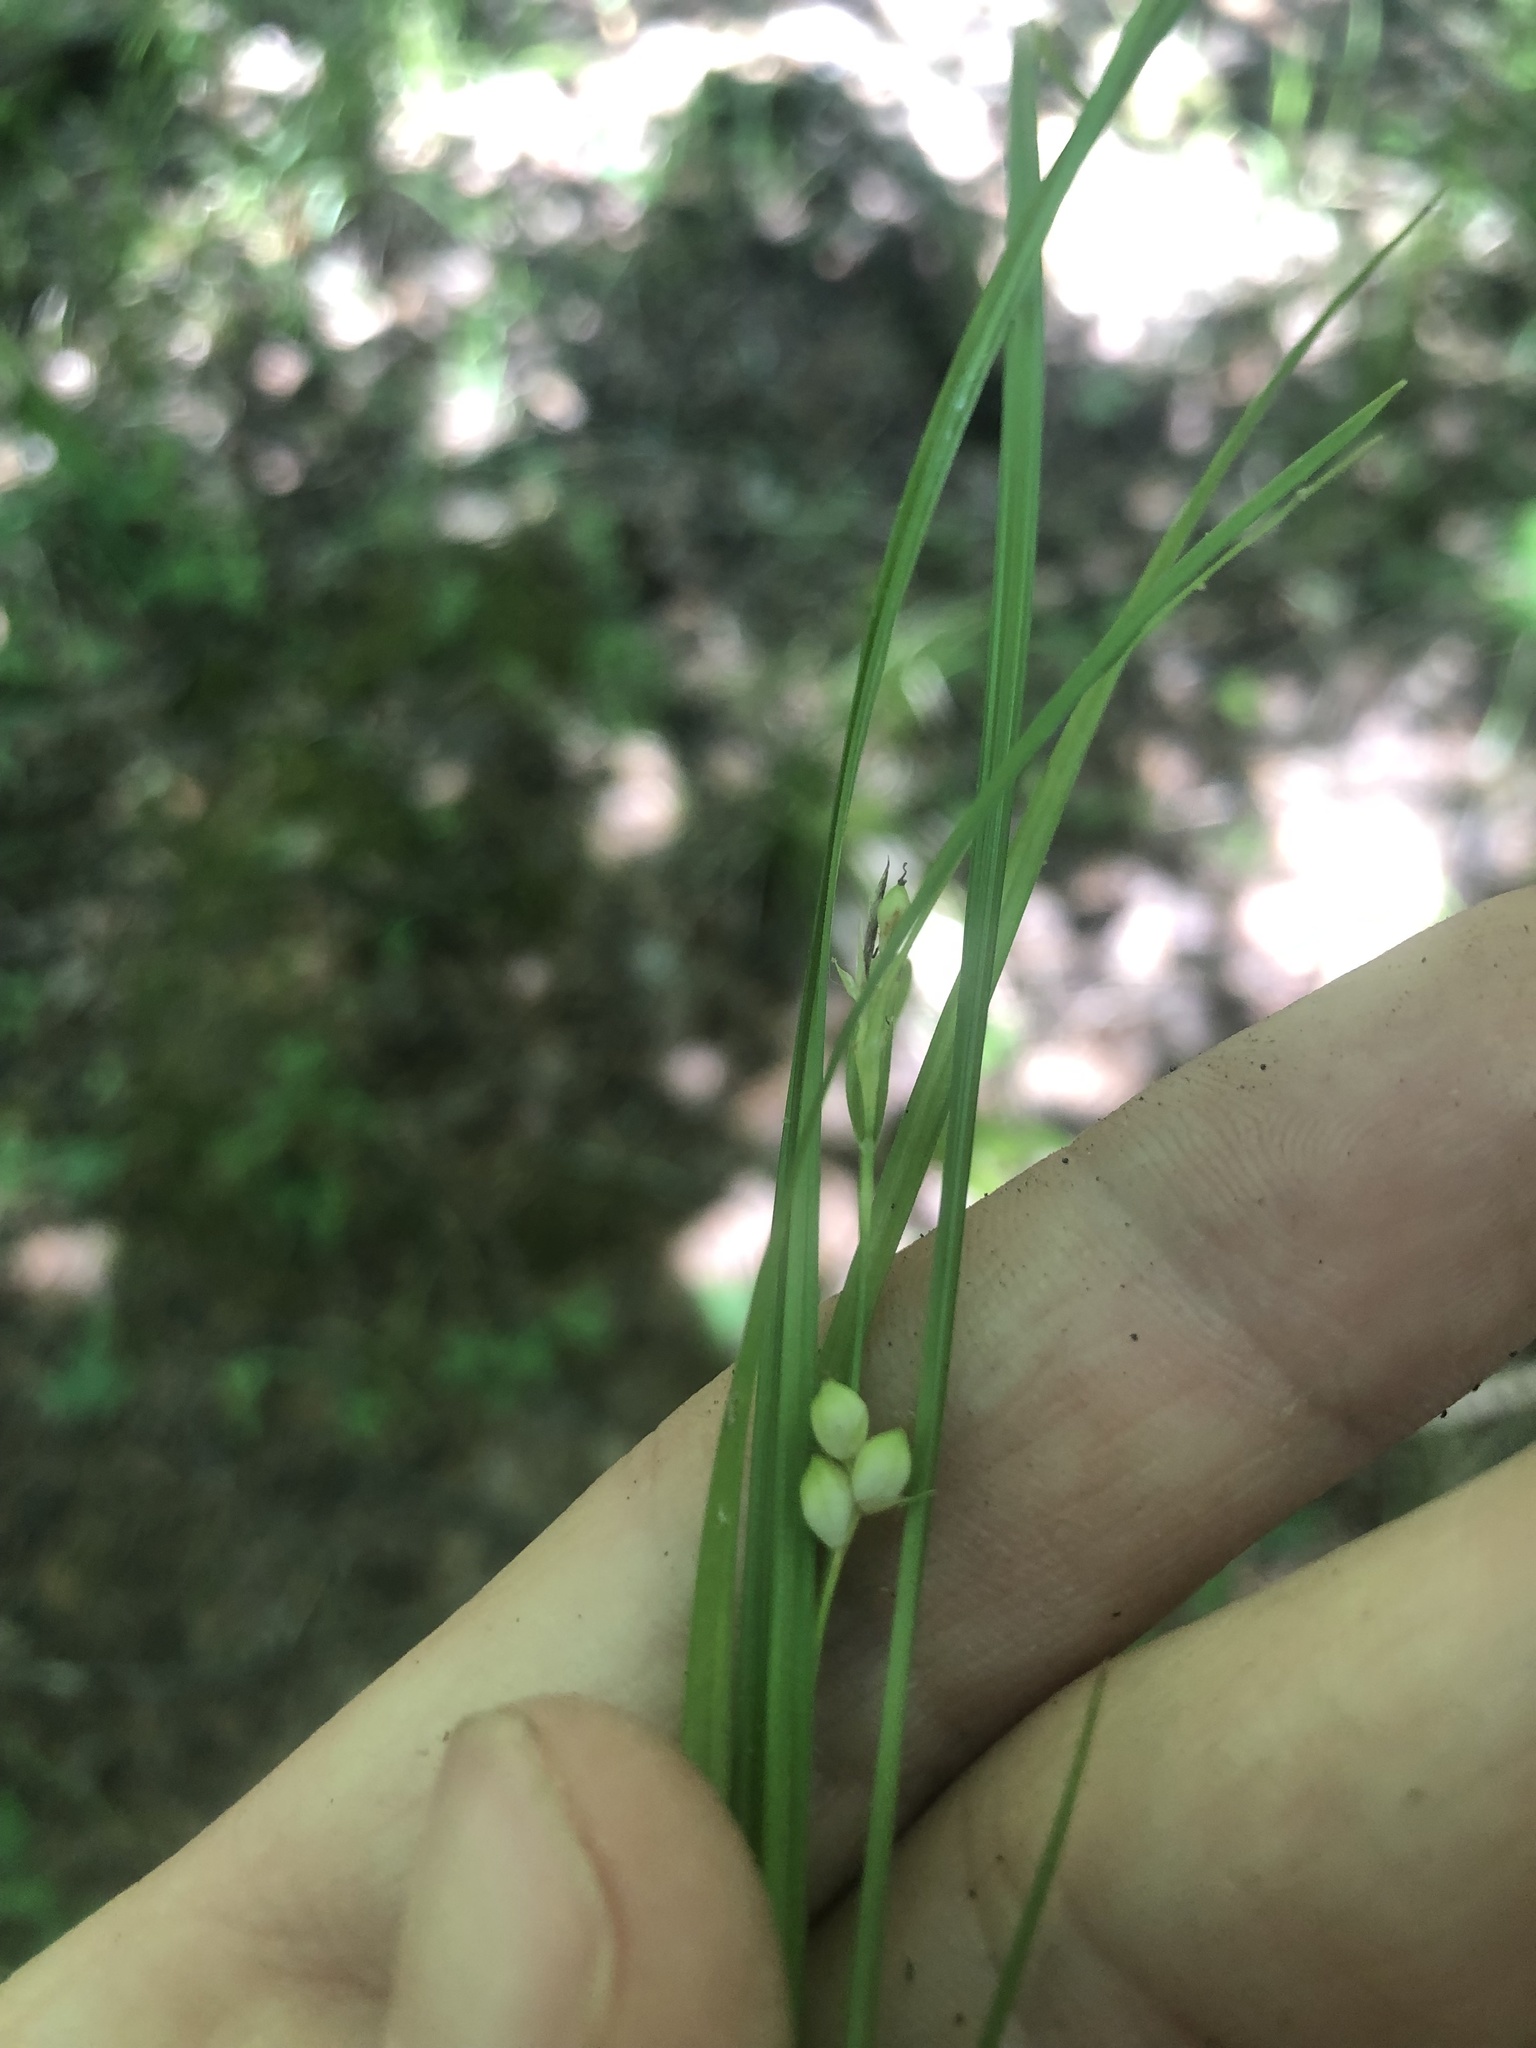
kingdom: Plantae
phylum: Tracheophyta
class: Liliopsida
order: Poales
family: Cyperaceae
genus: Carex
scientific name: Carex bulbostylis
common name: Eastern narrowleaf sedge
